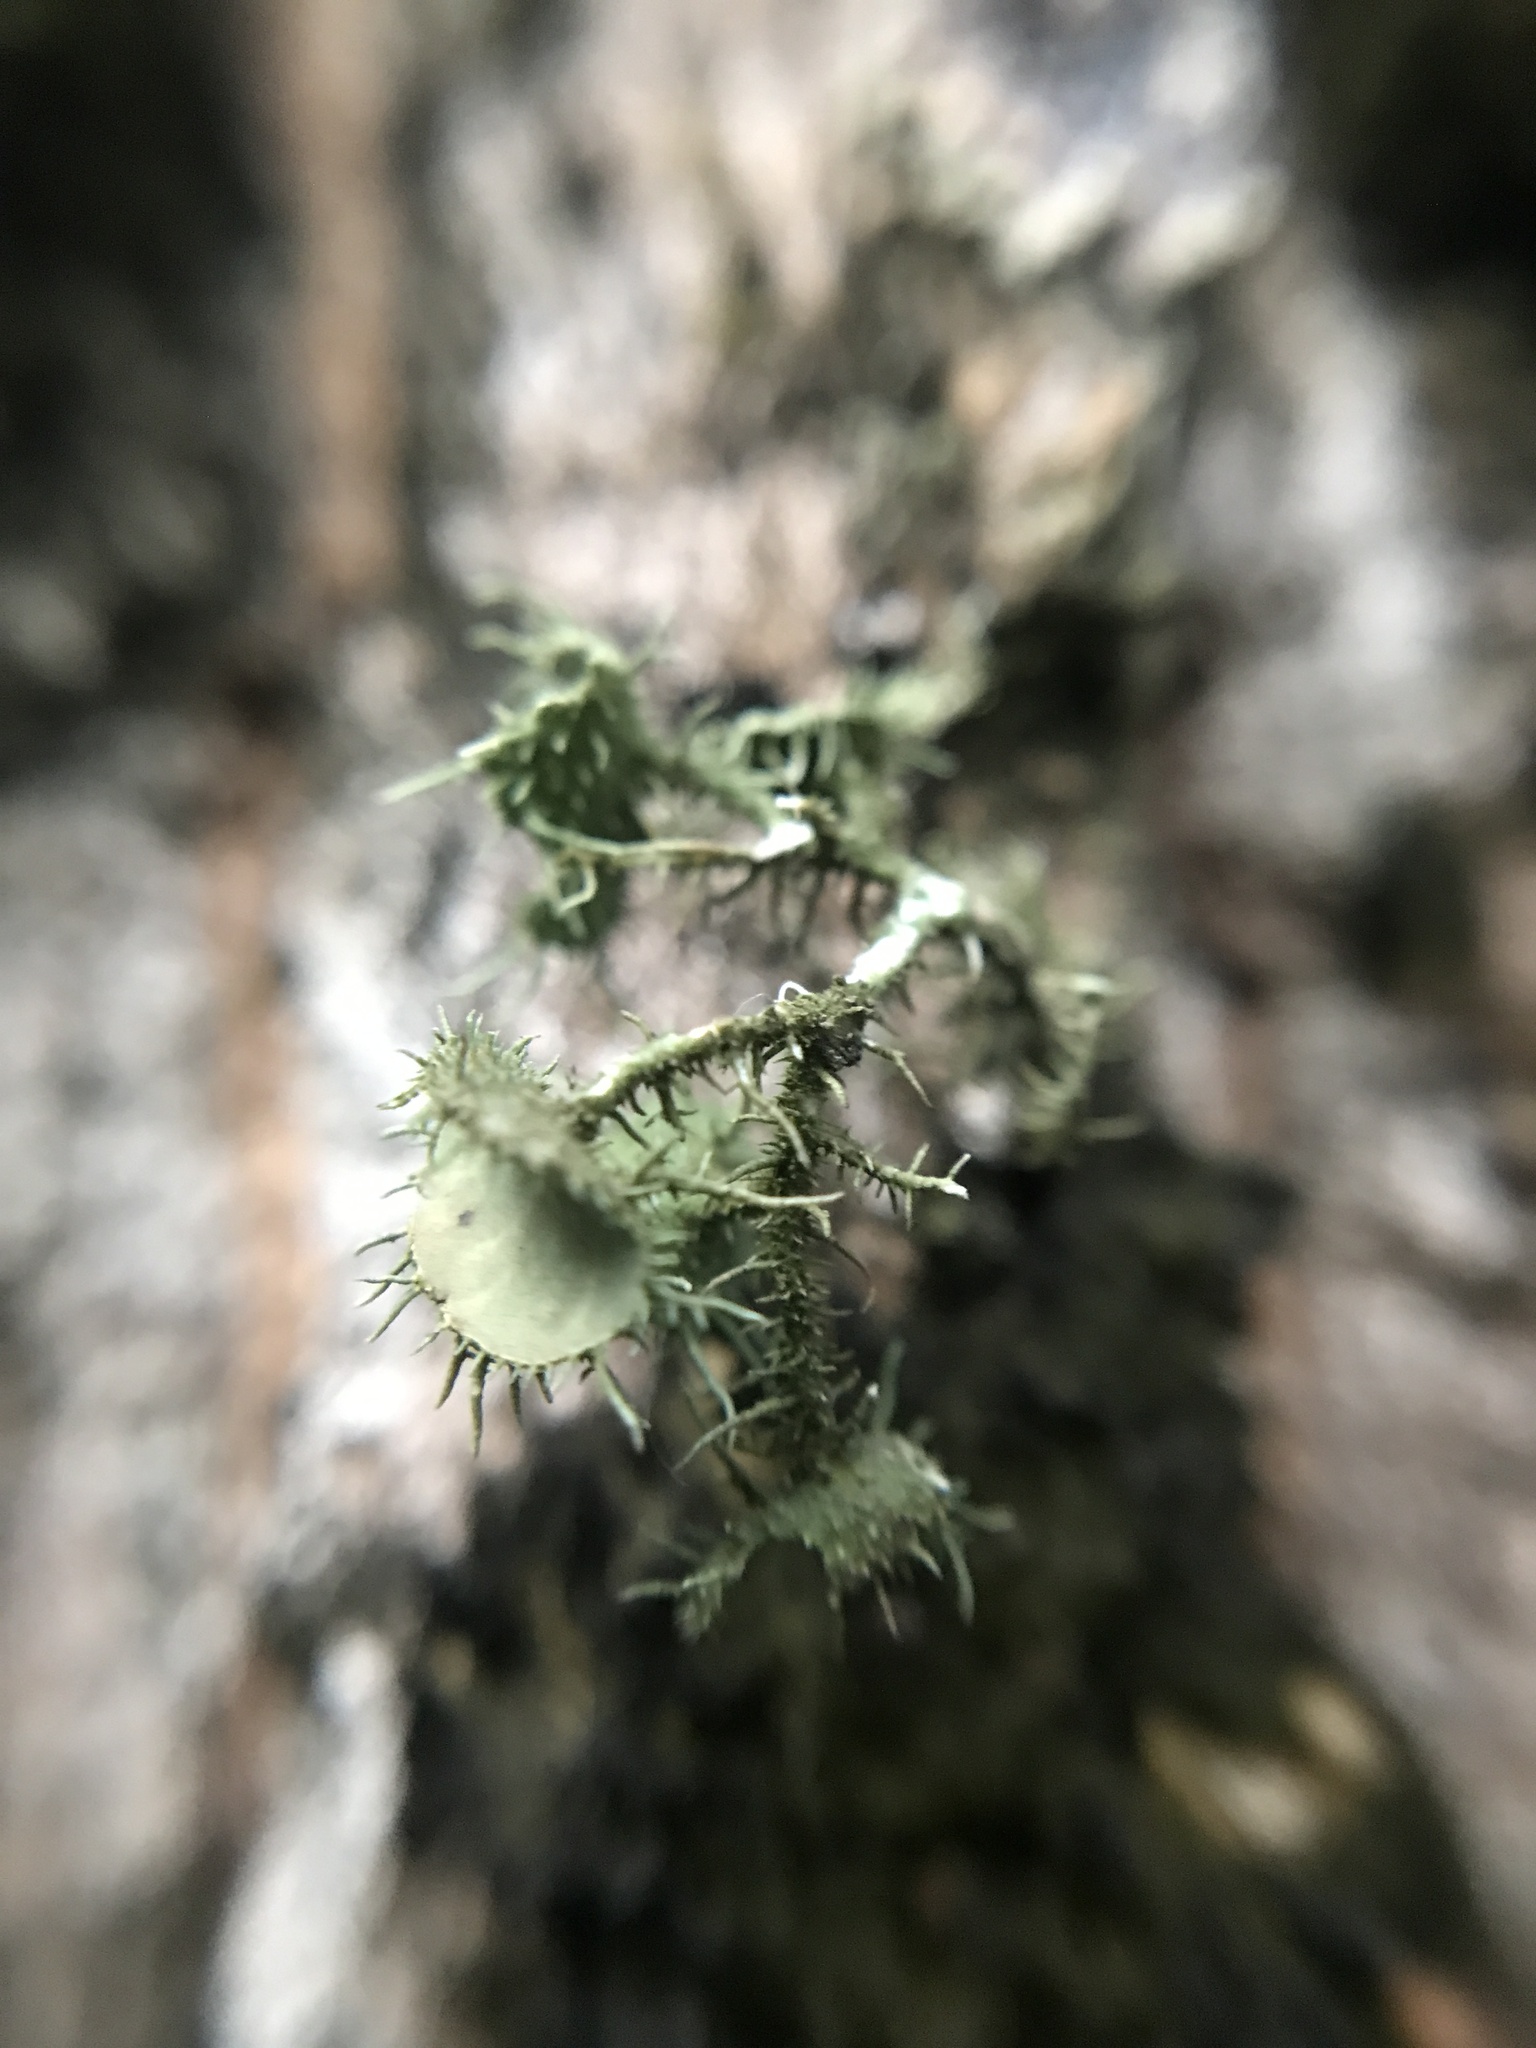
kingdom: Fungi
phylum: Ascomycota
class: Lecanoromycetes
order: Lecanorales
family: Parmeliaceae
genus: Usnea
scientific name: Usnea strigosa
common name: Bushy beard lichen
